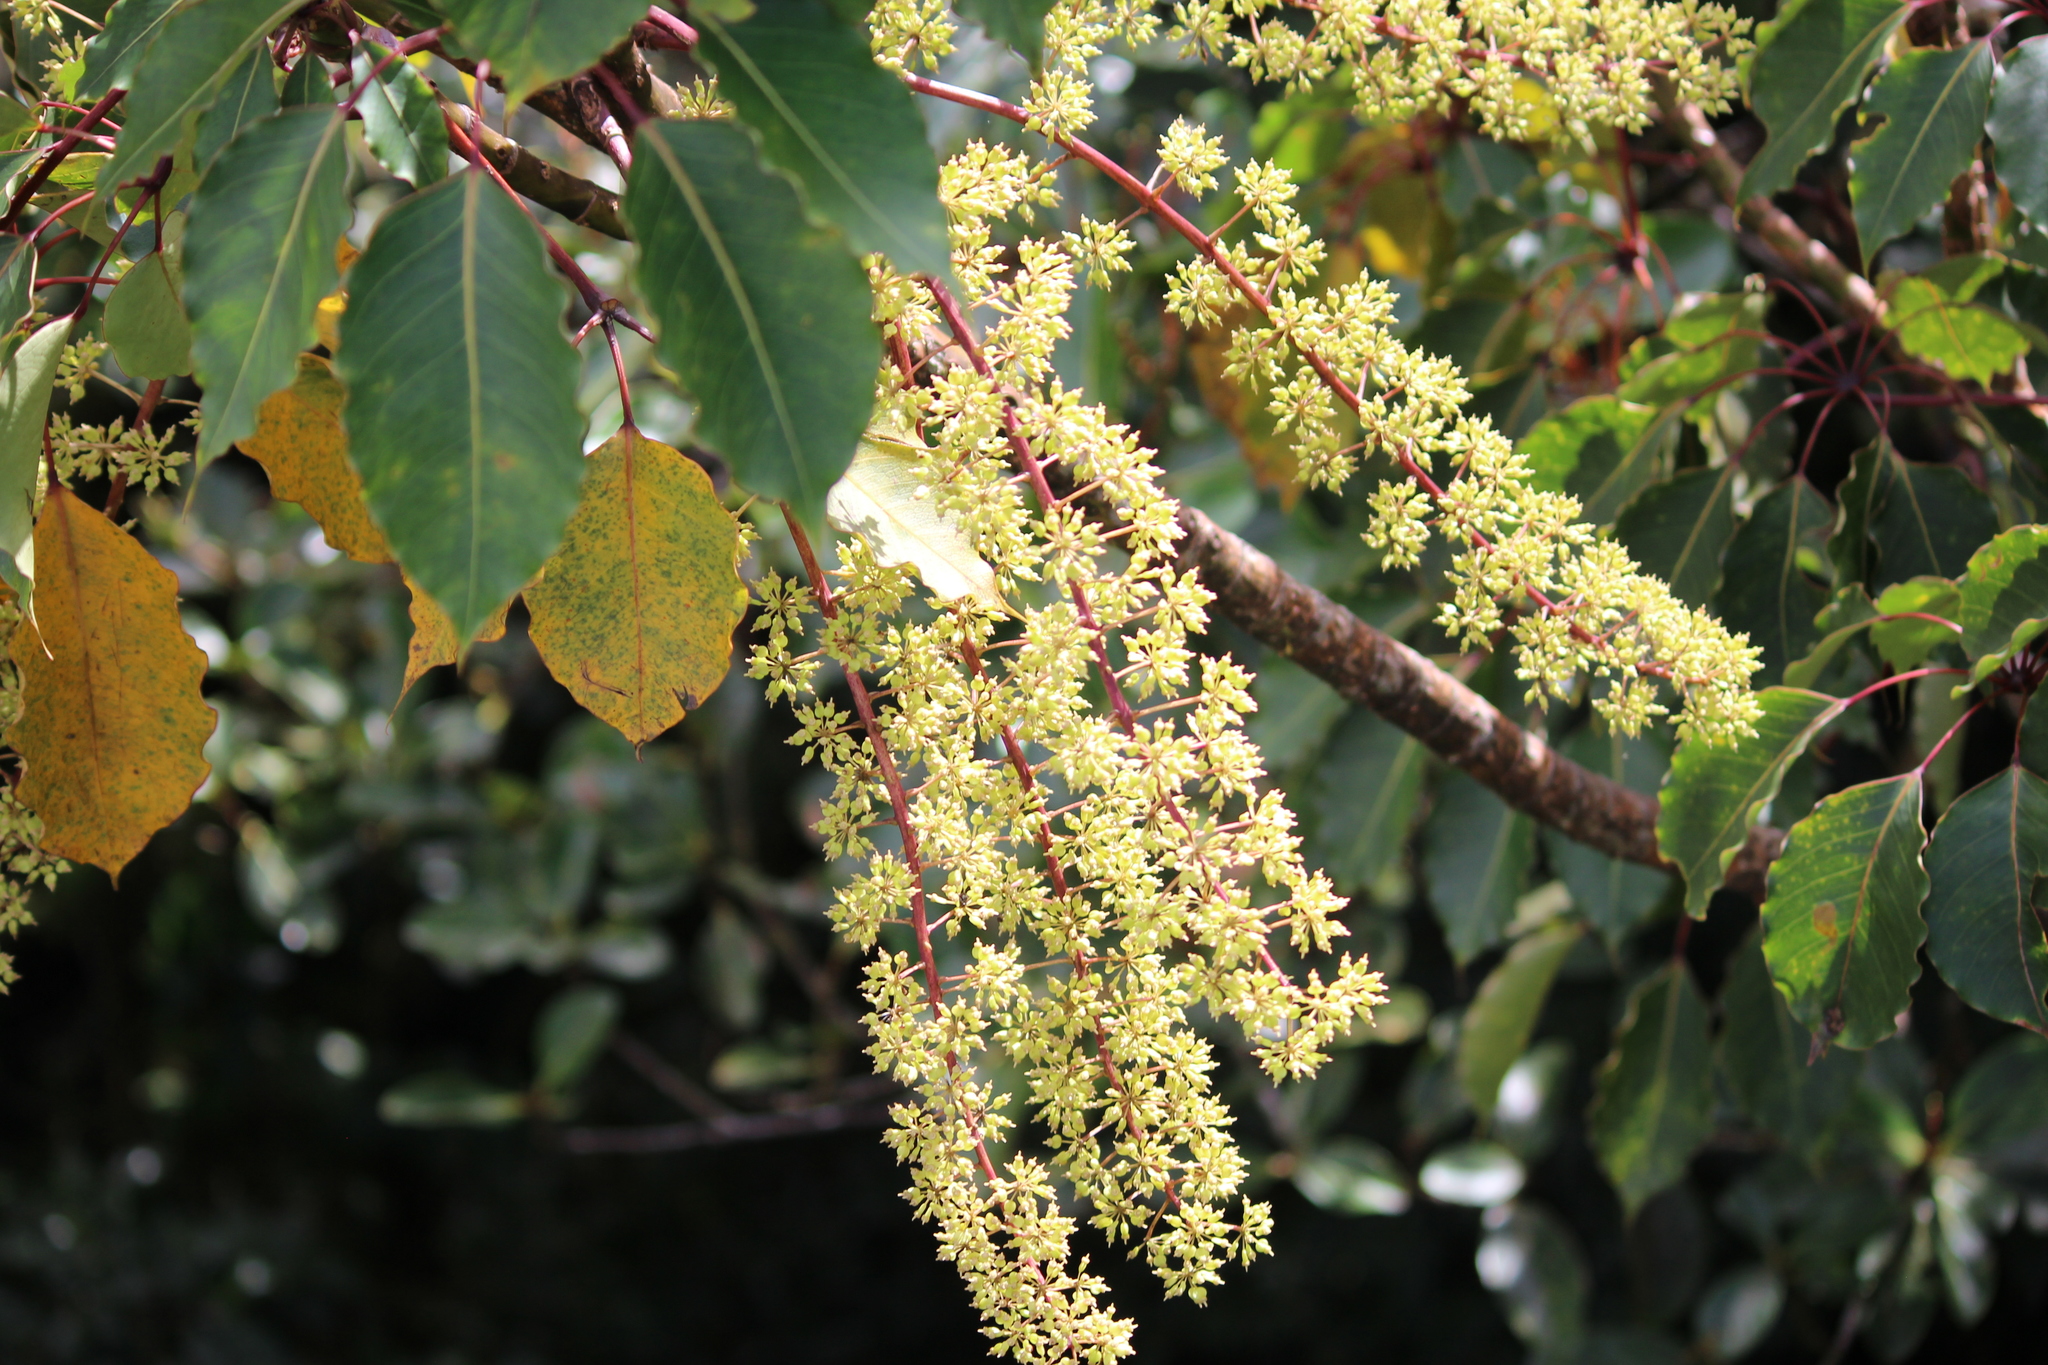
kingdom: Plantae
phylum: Tracheophyta
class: Magnoliopsida
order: Apiales
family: Araliaceae
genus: Sciodaphyllum
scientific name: Sciodaphyllum pittieri
